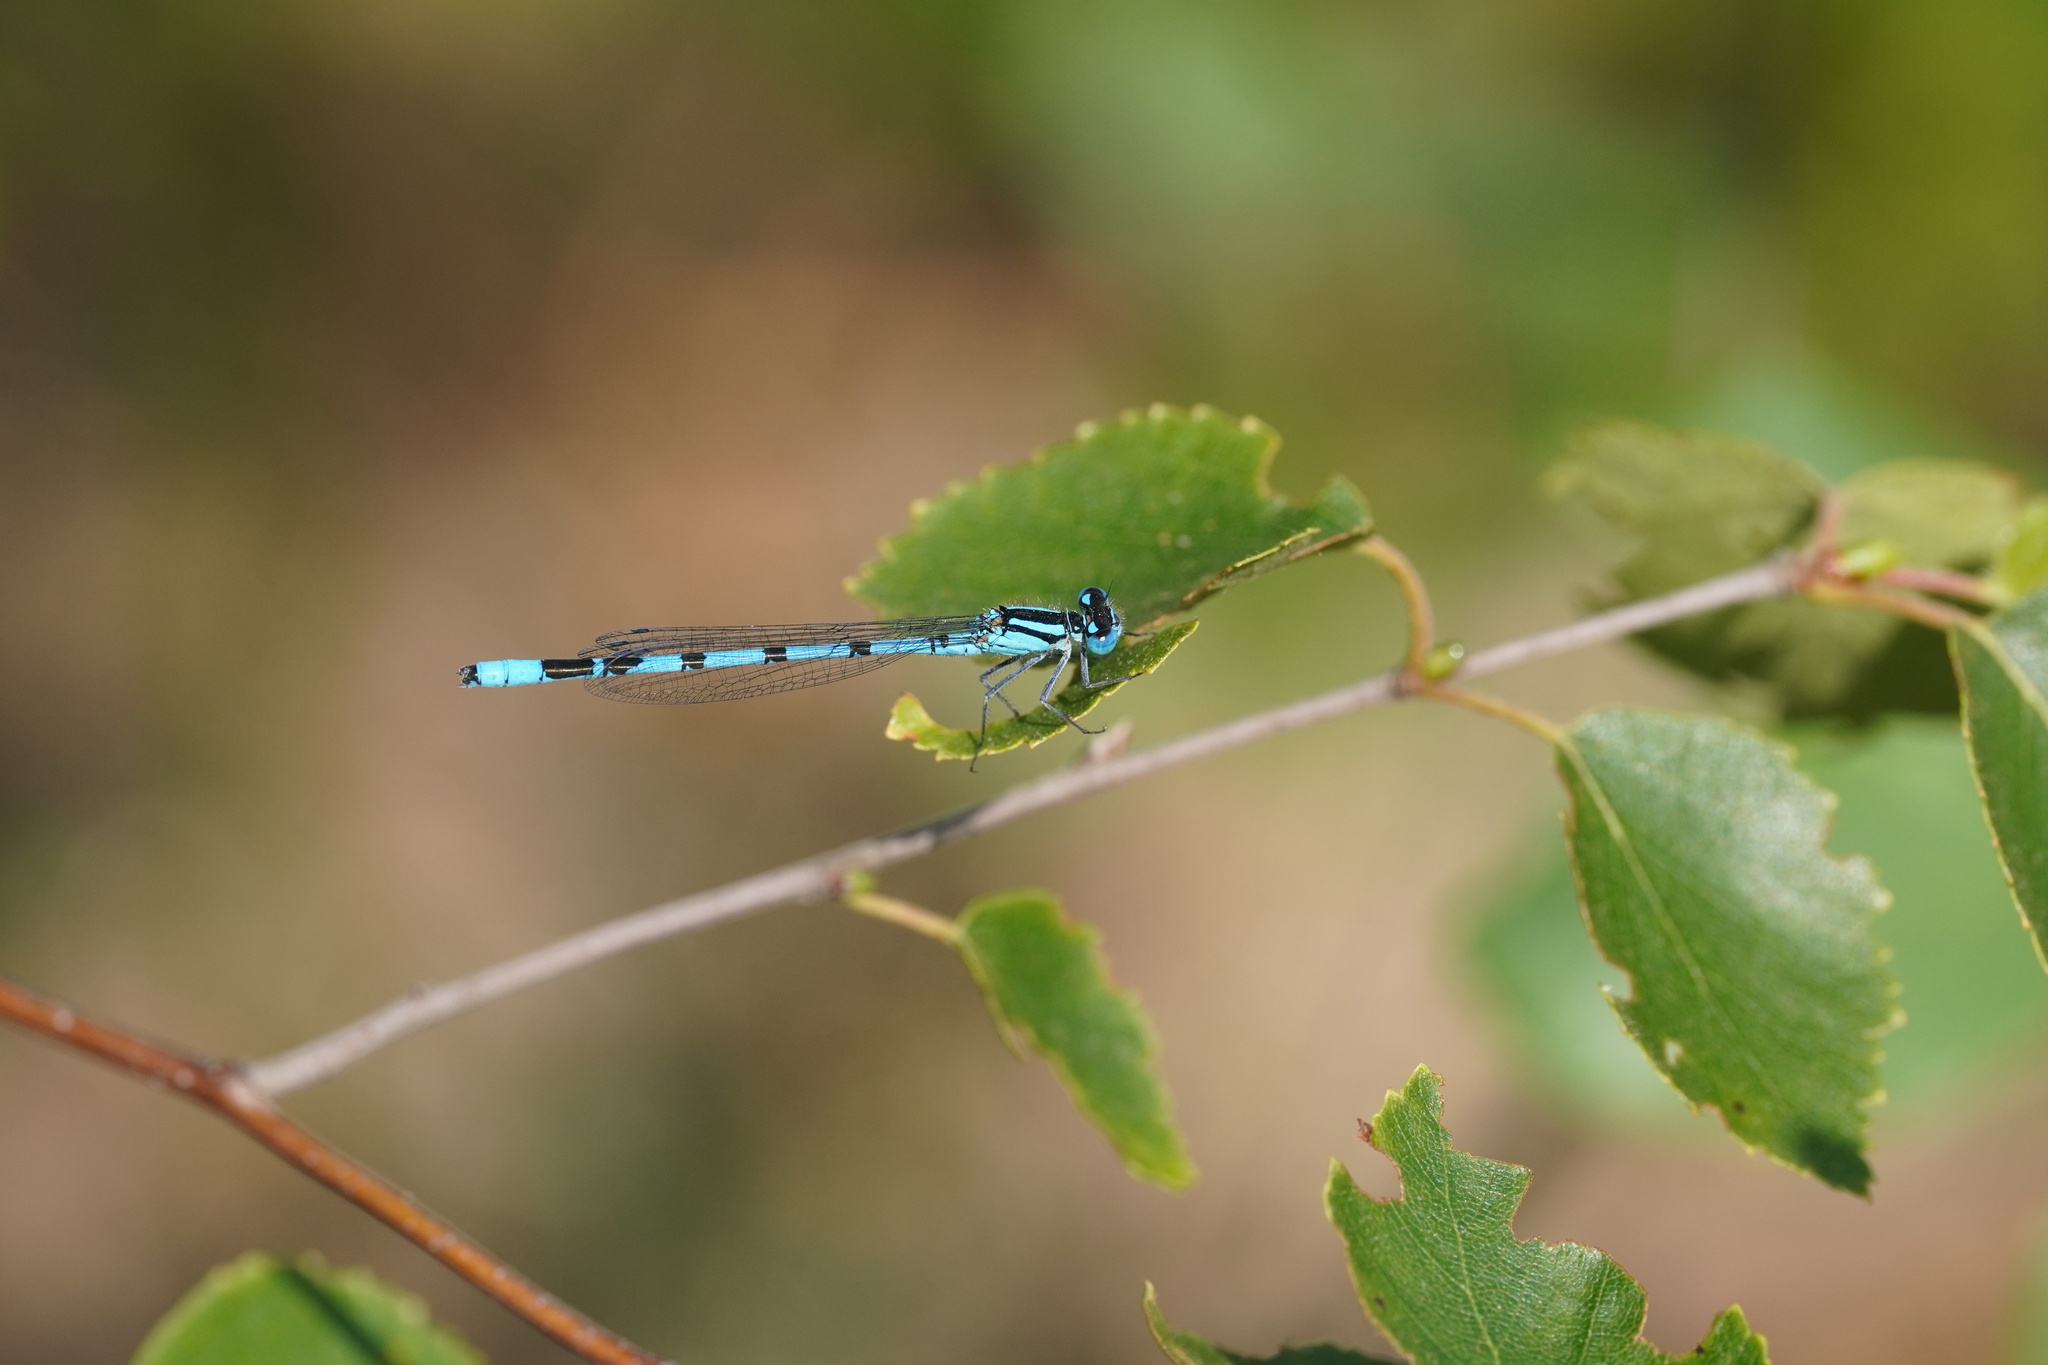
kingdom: Animalia
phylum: Arthropoda
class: Insecta
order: Odonata
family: Coenagrionidae
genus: Enallagma
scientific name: Enallagma cyathigerum
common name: Common blue damselfly
